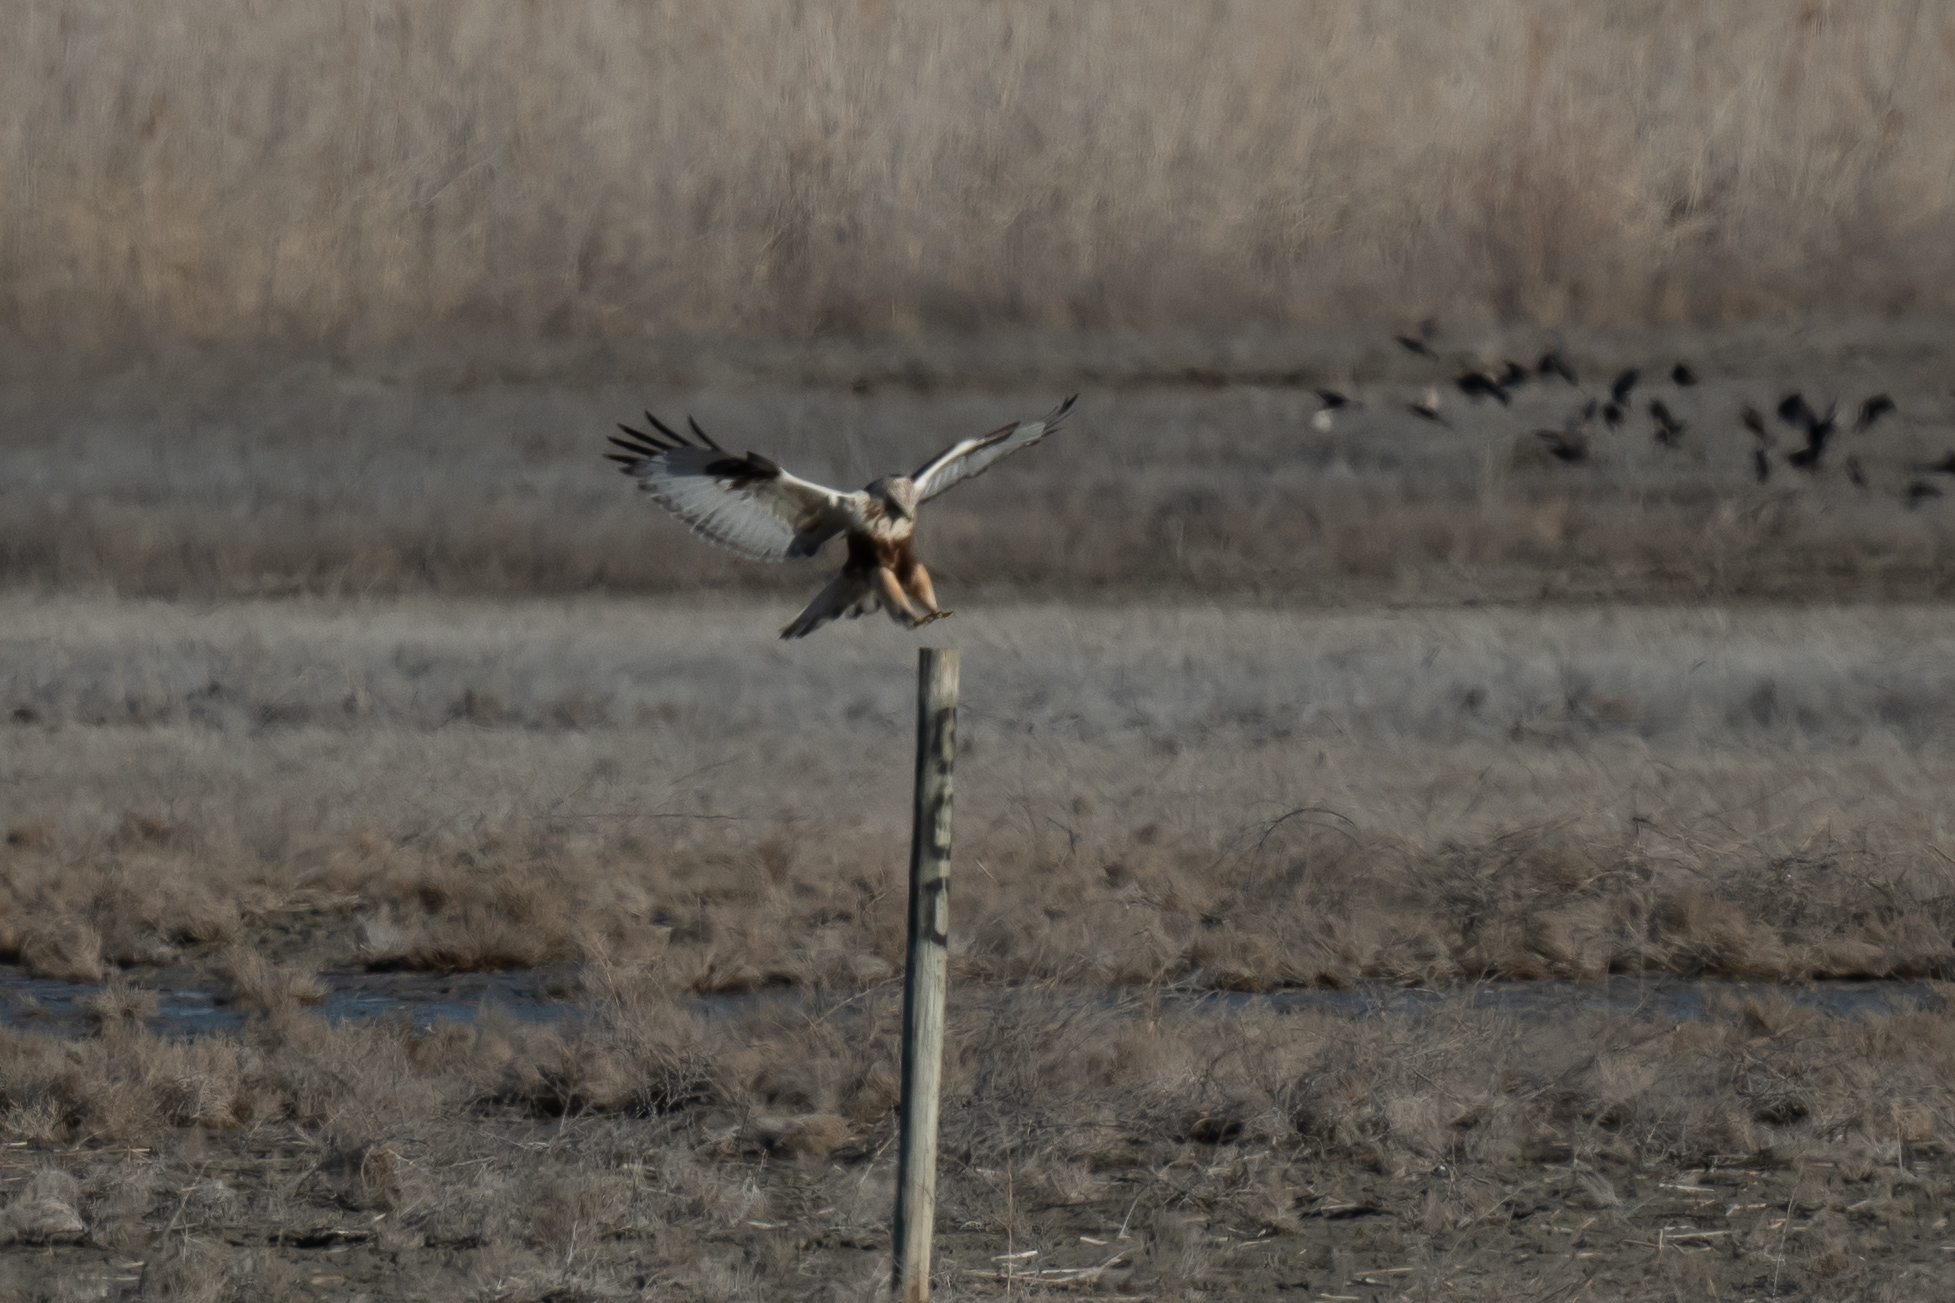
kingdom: Animalia
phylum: Chordata
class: Aves
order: Accipitriformes
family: Accipitridae
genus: Buteo
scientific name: Buteo lagopus
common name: Rough-legged buzzard
